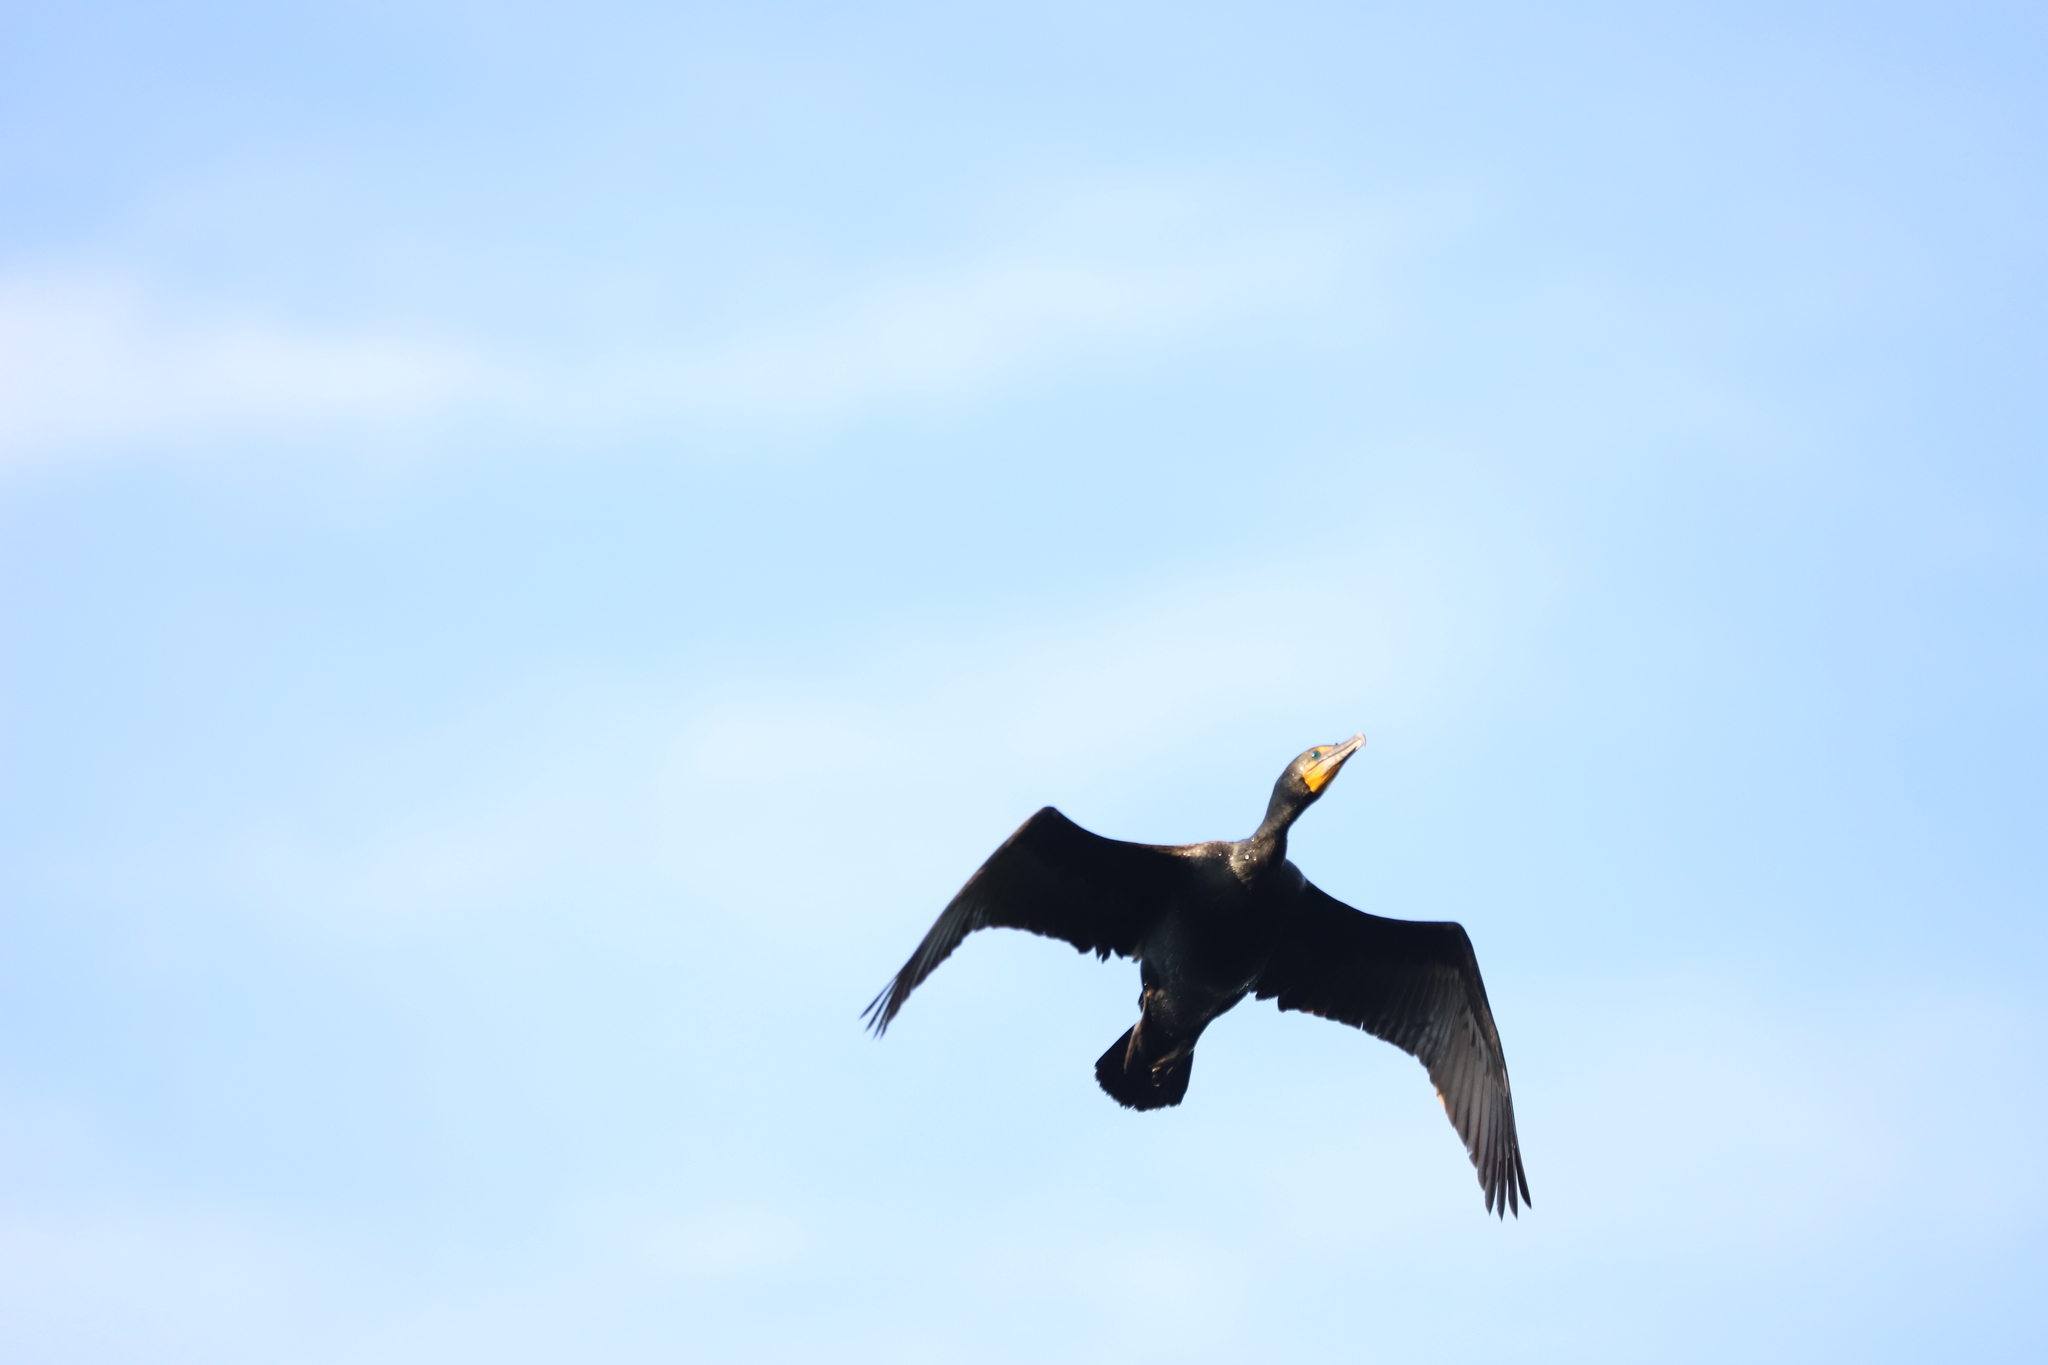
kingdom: Animalia
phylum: Chordata
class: Aves
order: Suliformes
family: Phalacrocoracidae
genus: Phalacrocorax
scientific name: Phalacrocorax auritus
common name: Double-crested cormorant
